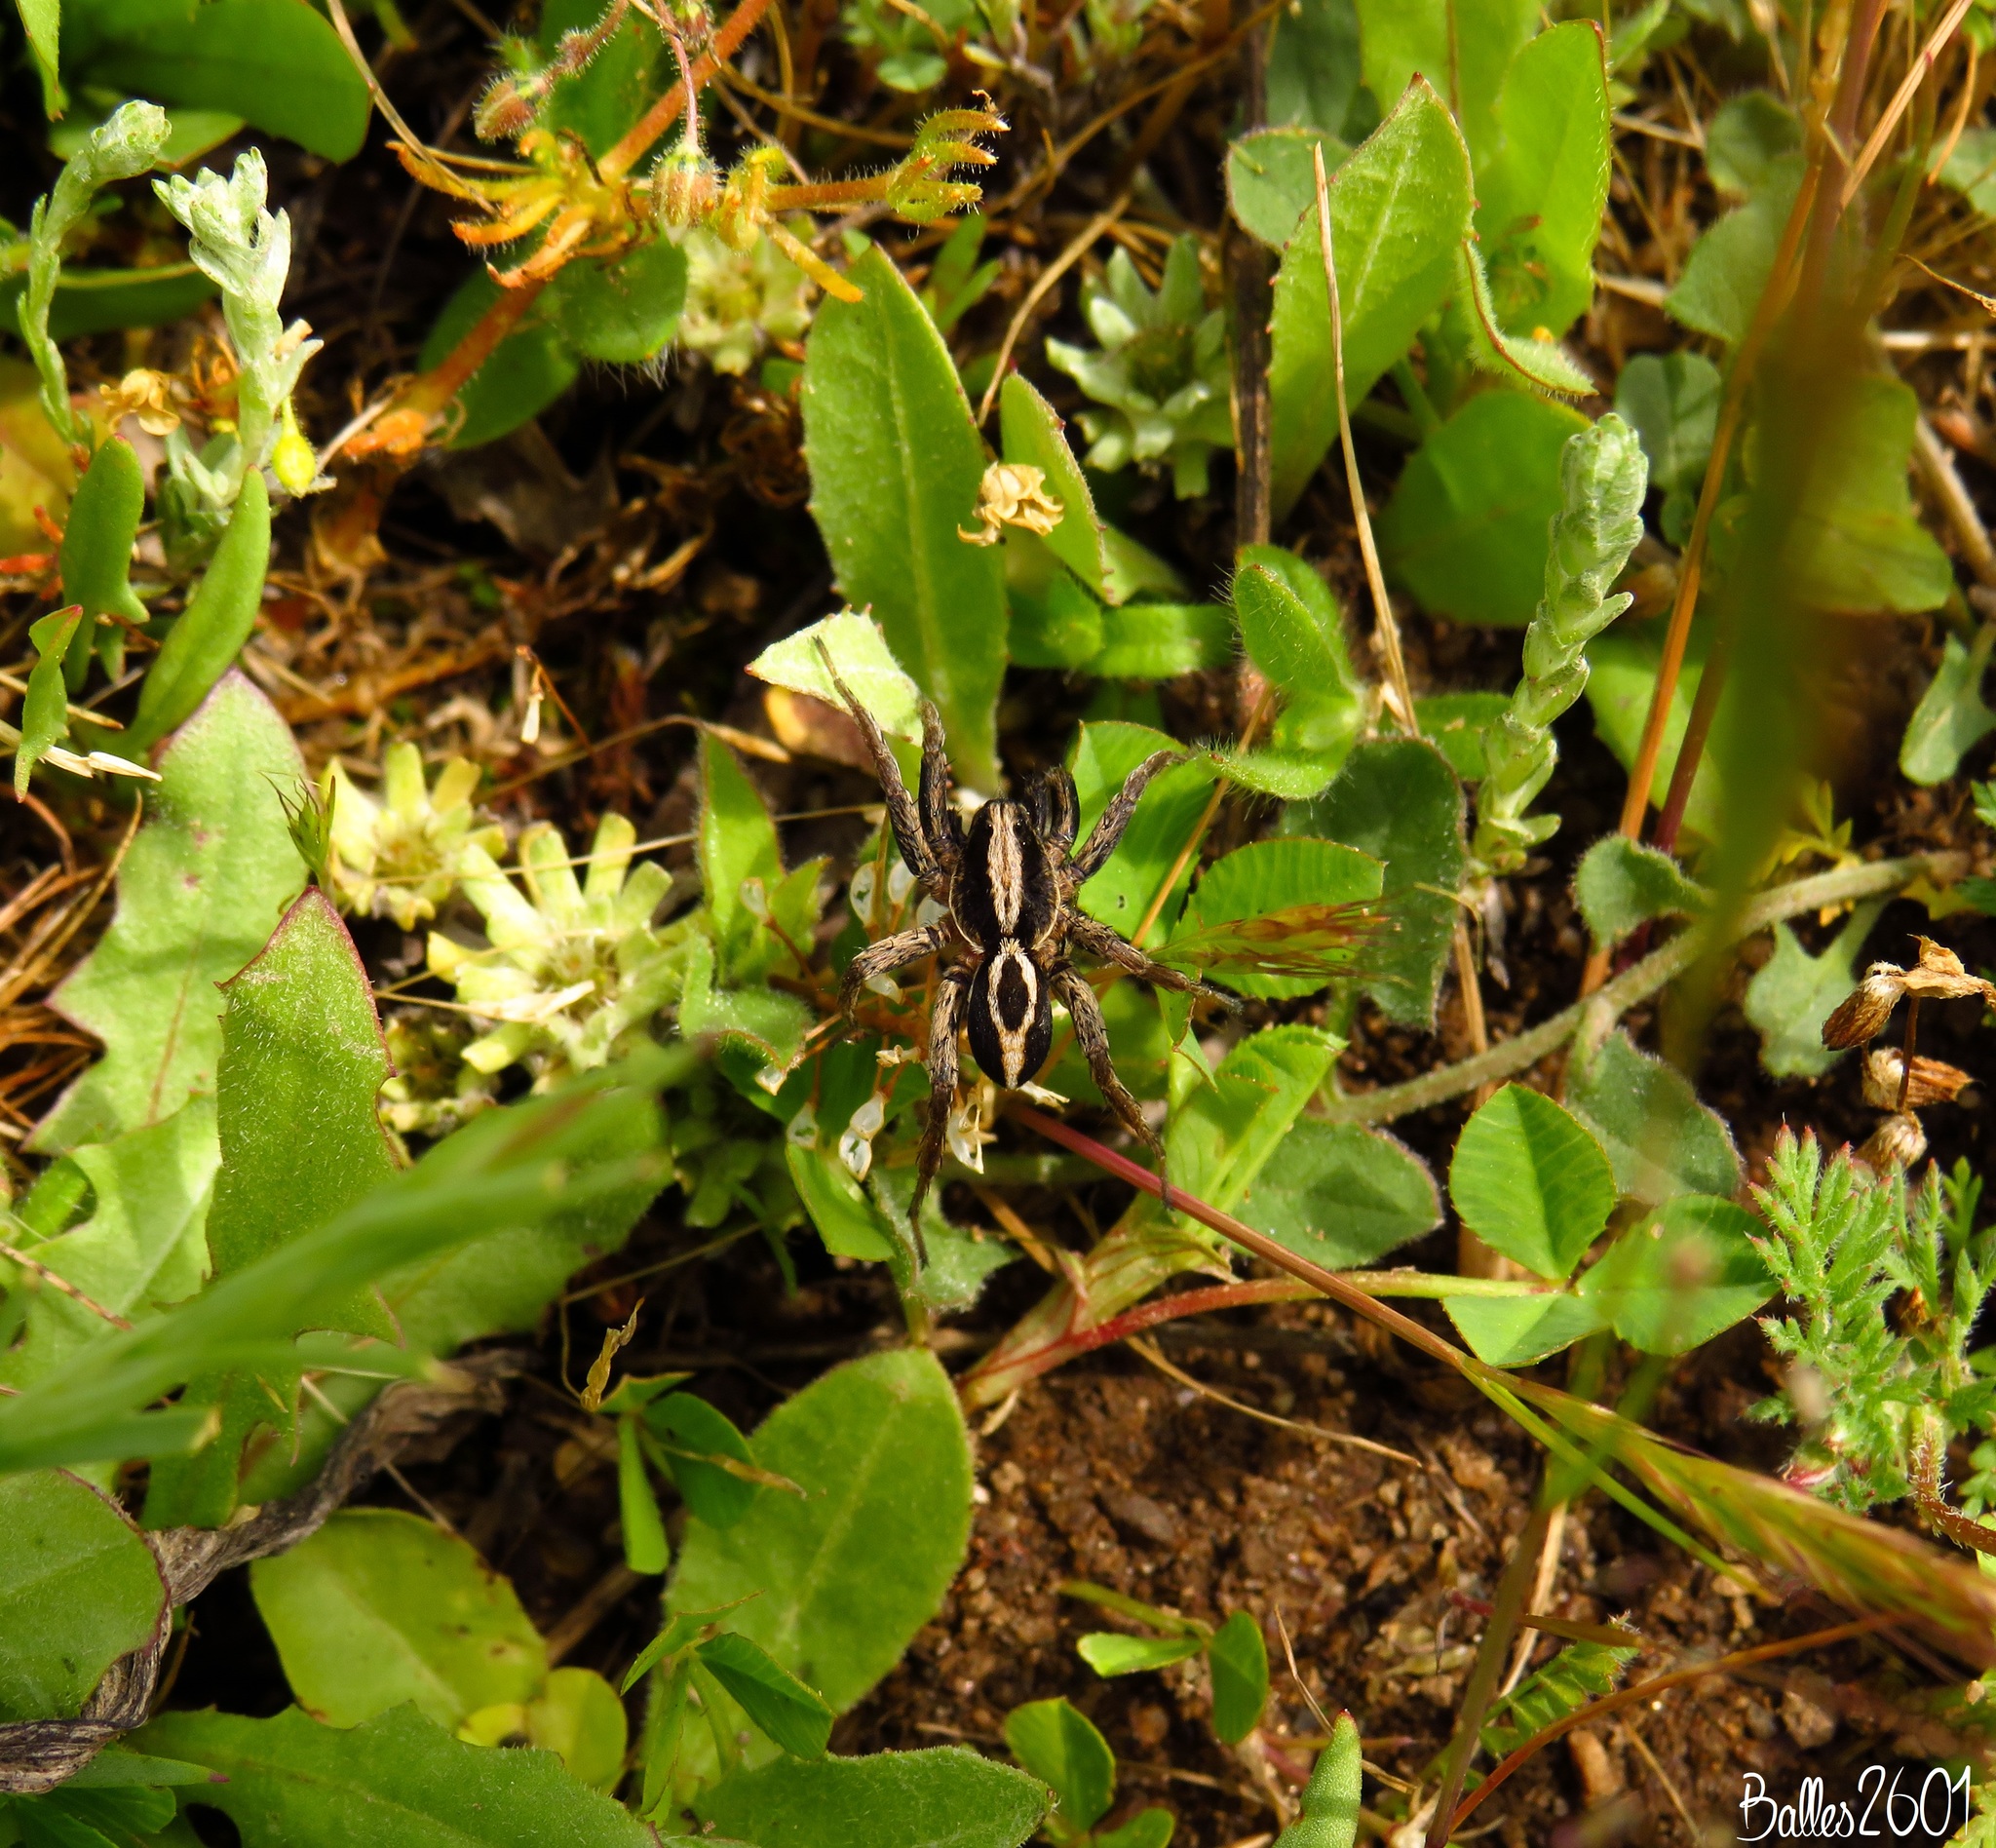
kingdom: Animalia
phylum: Arthropoda
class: Arachnida
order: Araneae
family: Lycosidae
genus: Alopecosa
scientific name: Alopecosa albofasciata
